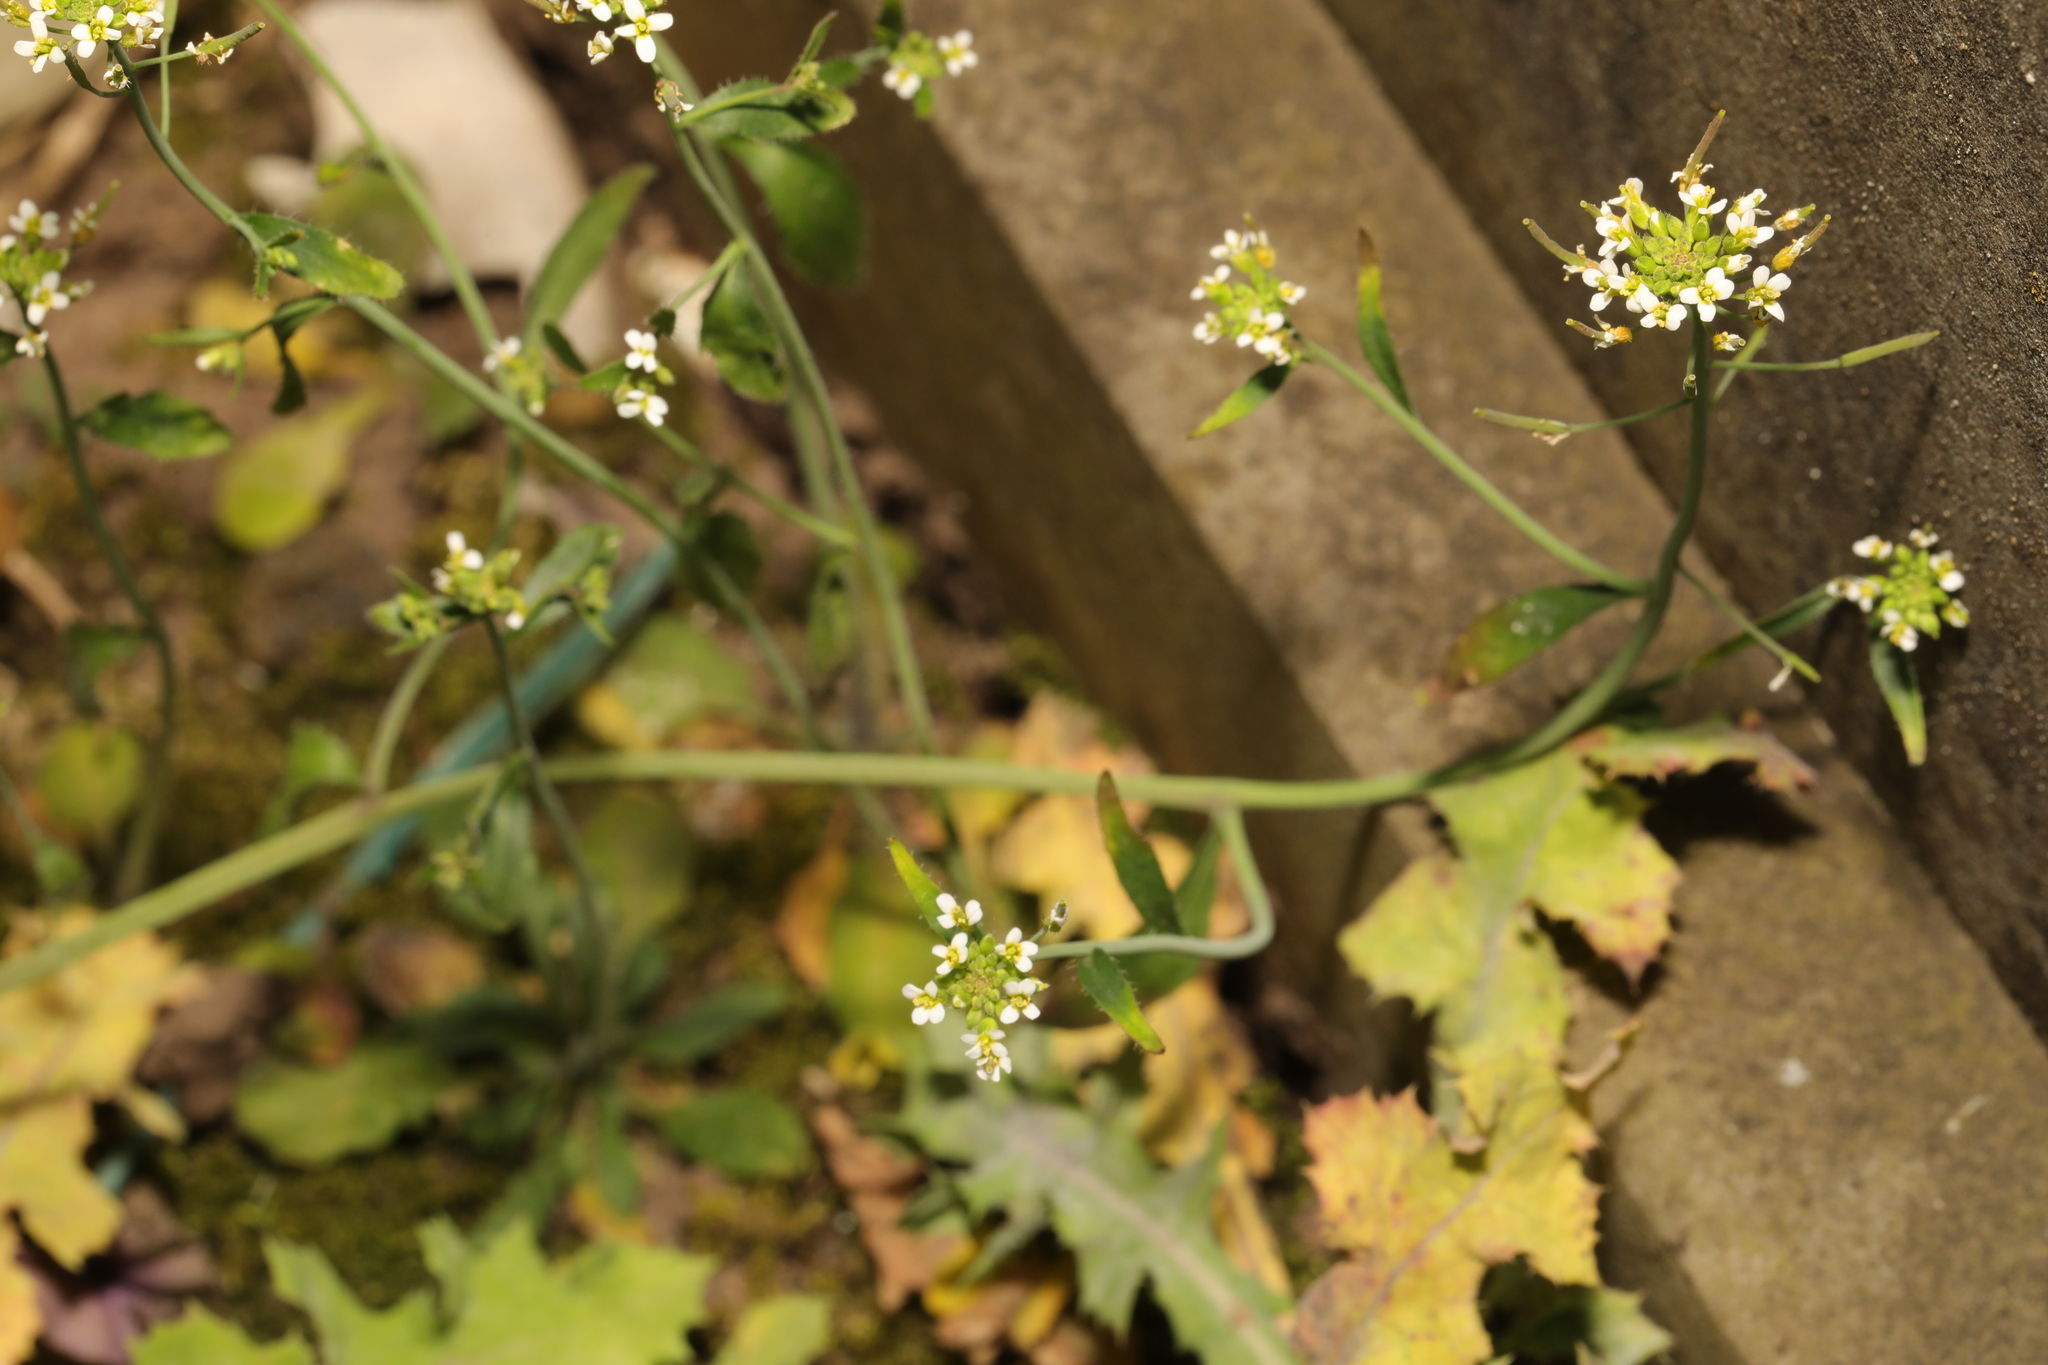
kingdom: Plantae
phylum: Tracheophyta
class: Magnoliopsida
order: Brassicales
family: Brassicaceae
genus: Arabidopsis
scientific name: Arabidopsis thaliana
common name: Thale cress
